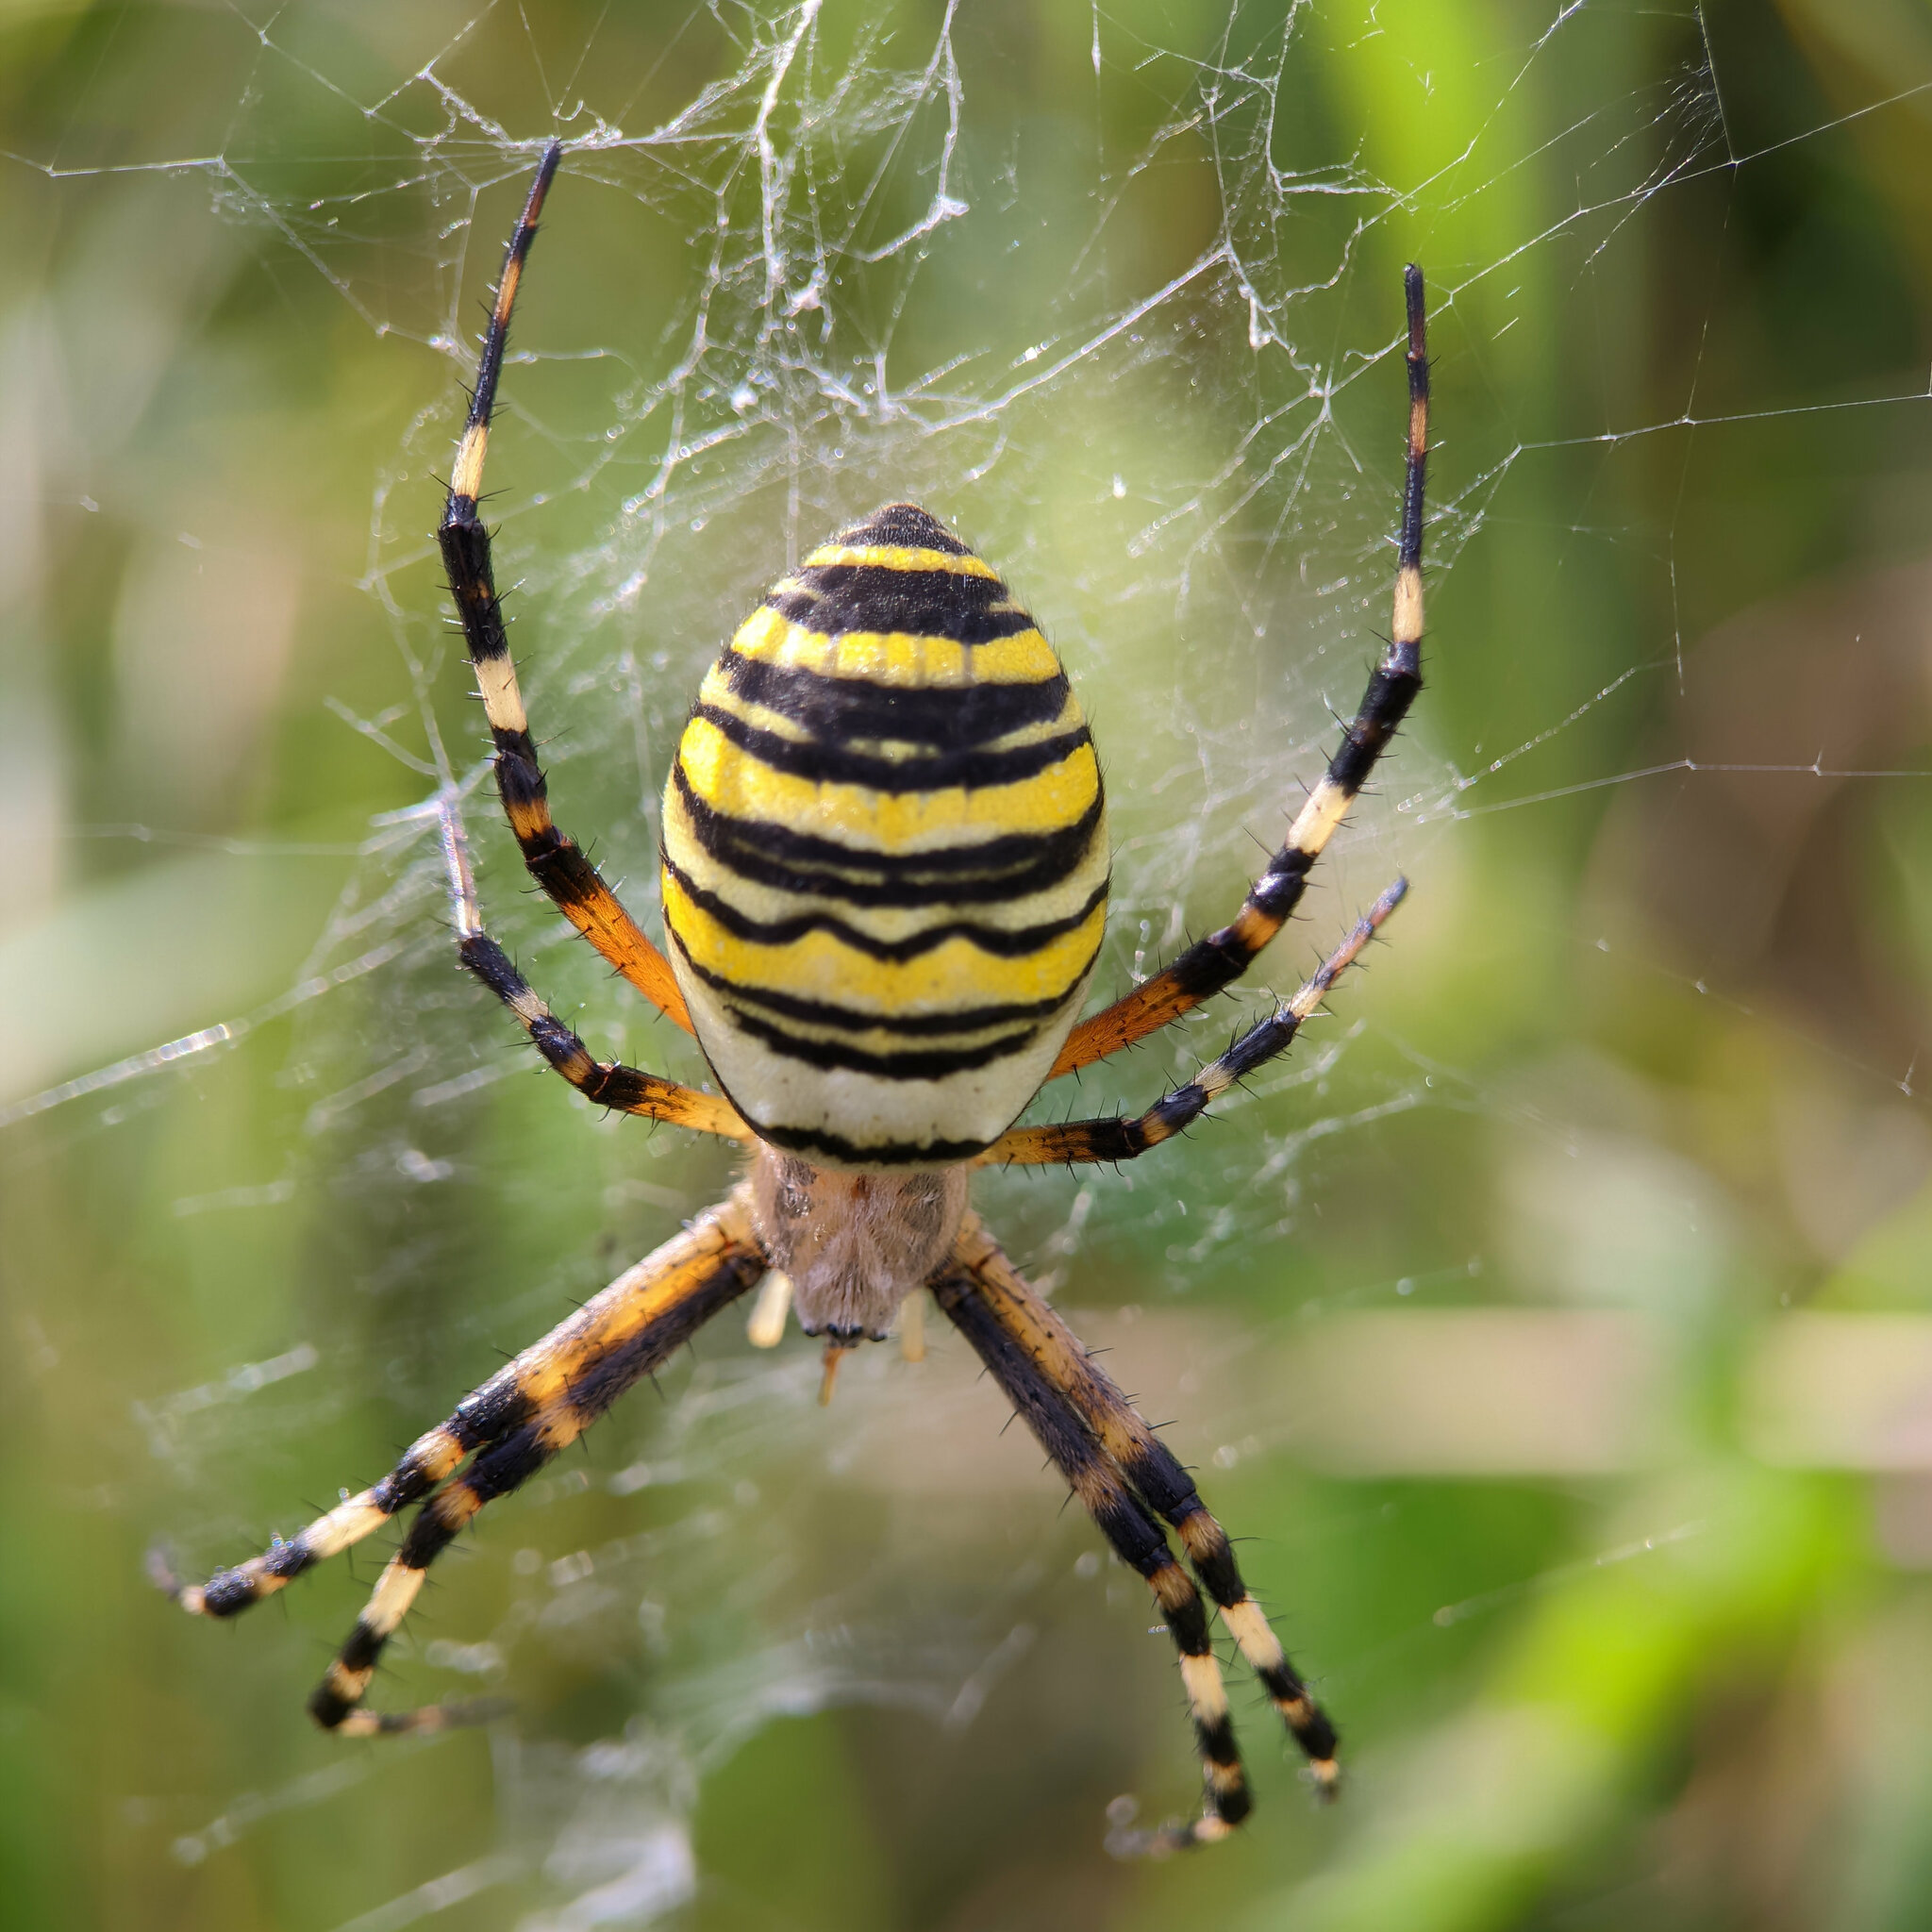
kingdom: Animalia
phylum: Arthropoda
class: Arachnida
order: Araneae
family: Araneidae
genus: Argiope
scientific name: Argiope bruennichi
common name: Wasp spider
